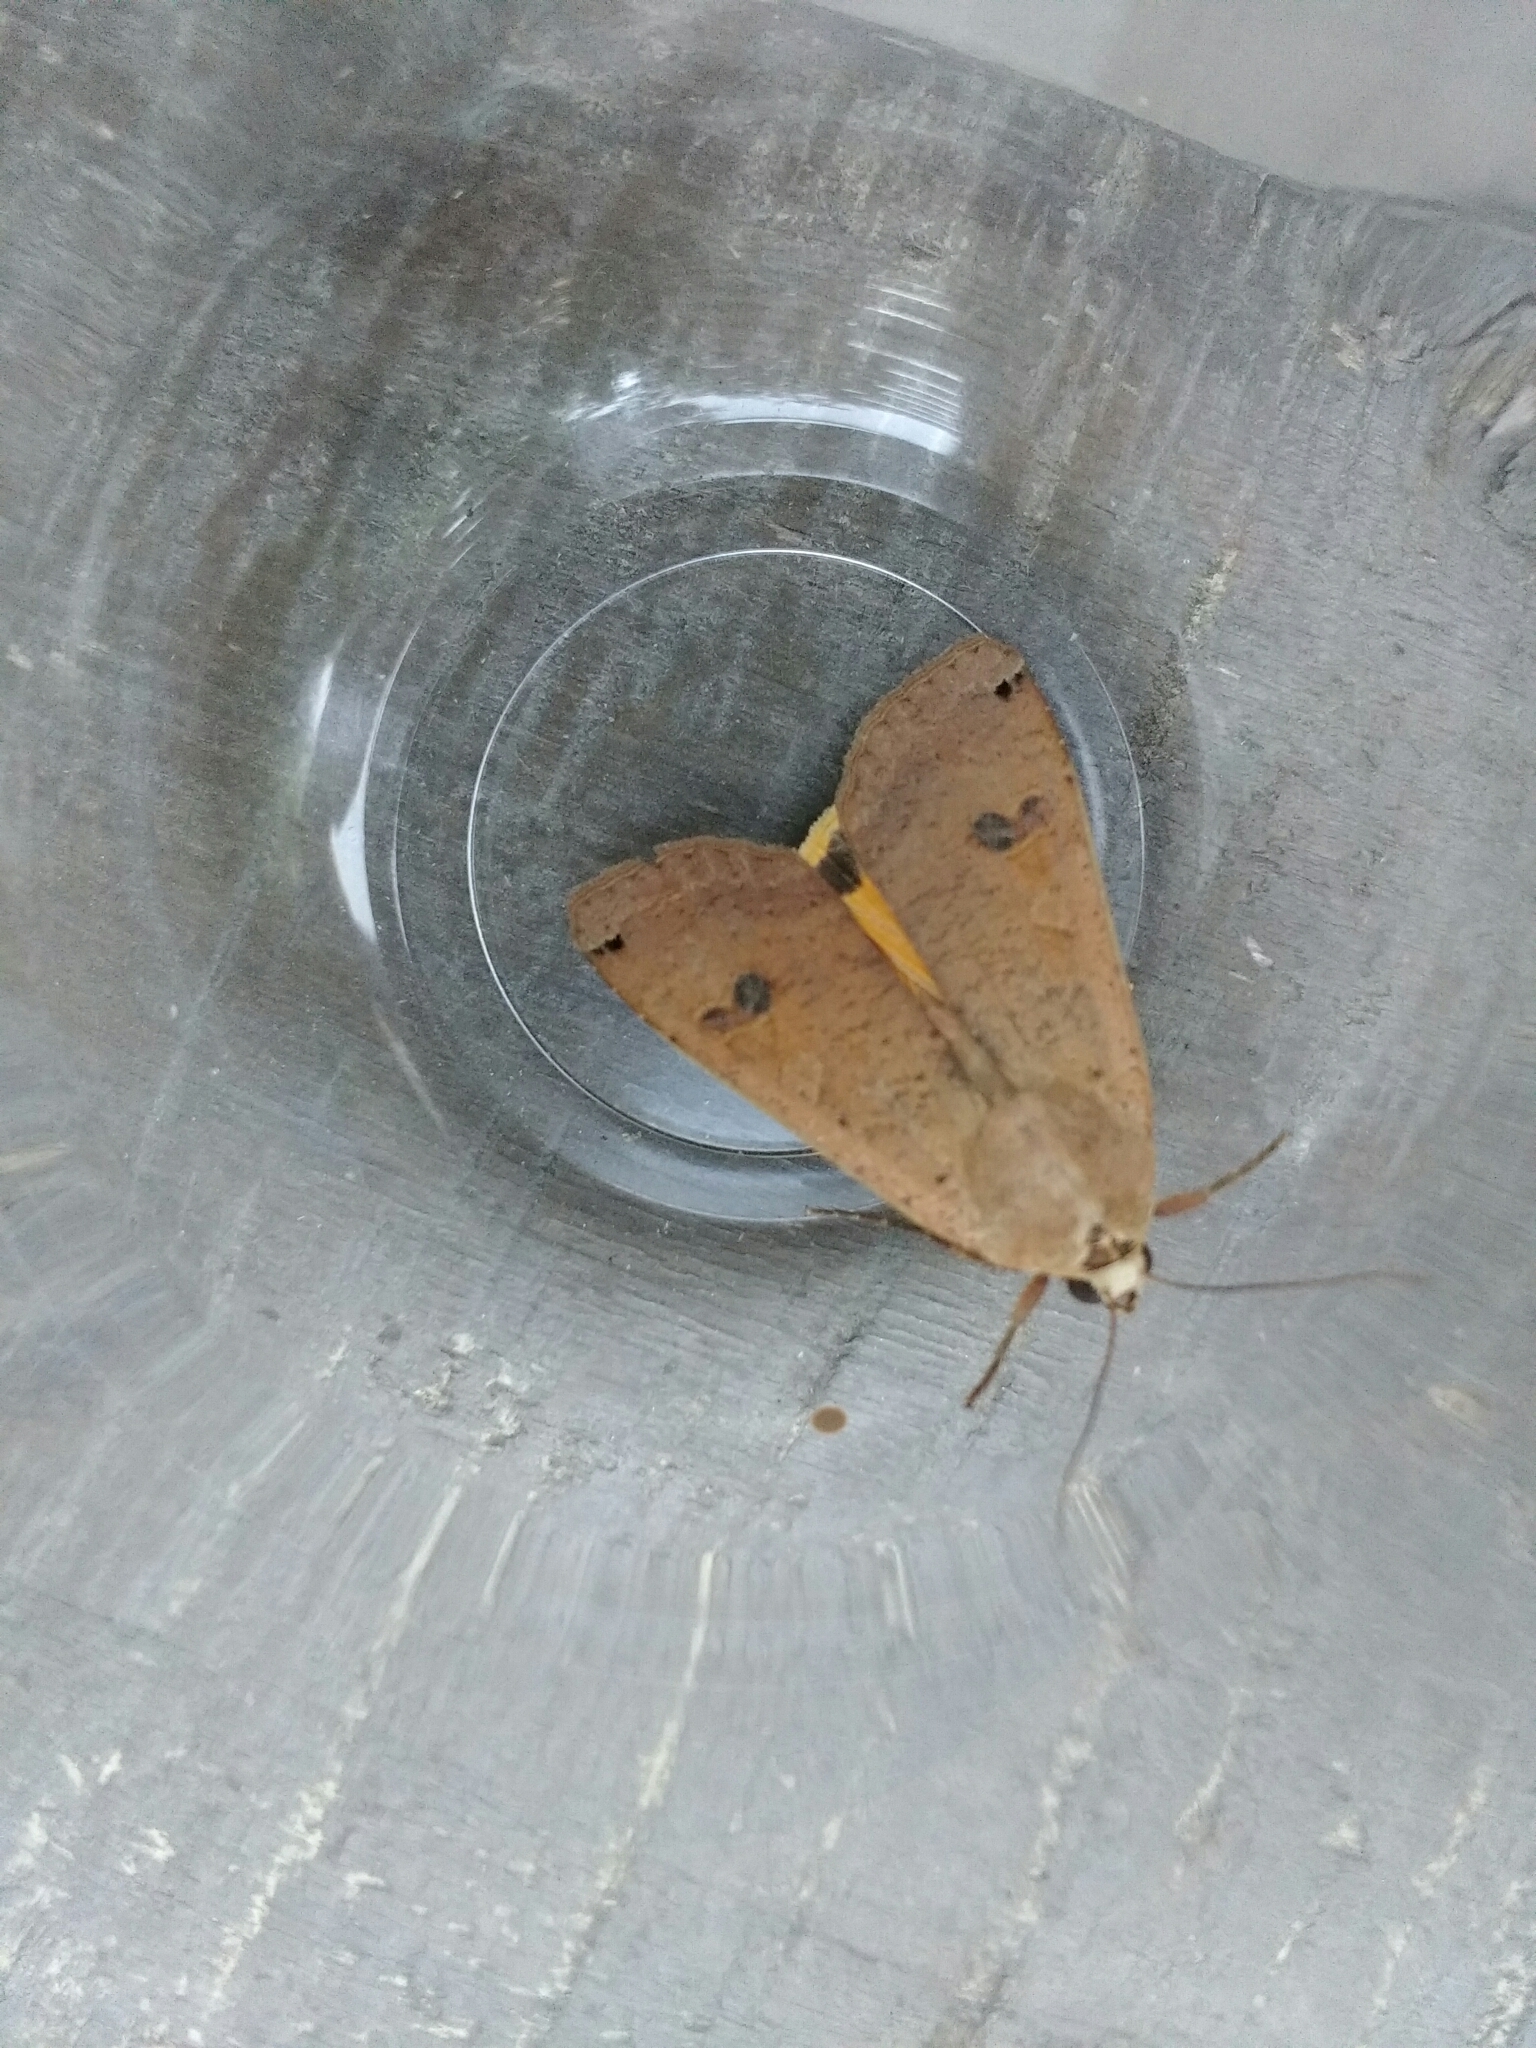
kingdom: Animalia
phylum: Arthropoda
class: Insecta
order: Lepidoptera
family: Noctuidae
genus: Noctua
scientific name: Noctua pronuba
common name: Large yellow underwing
